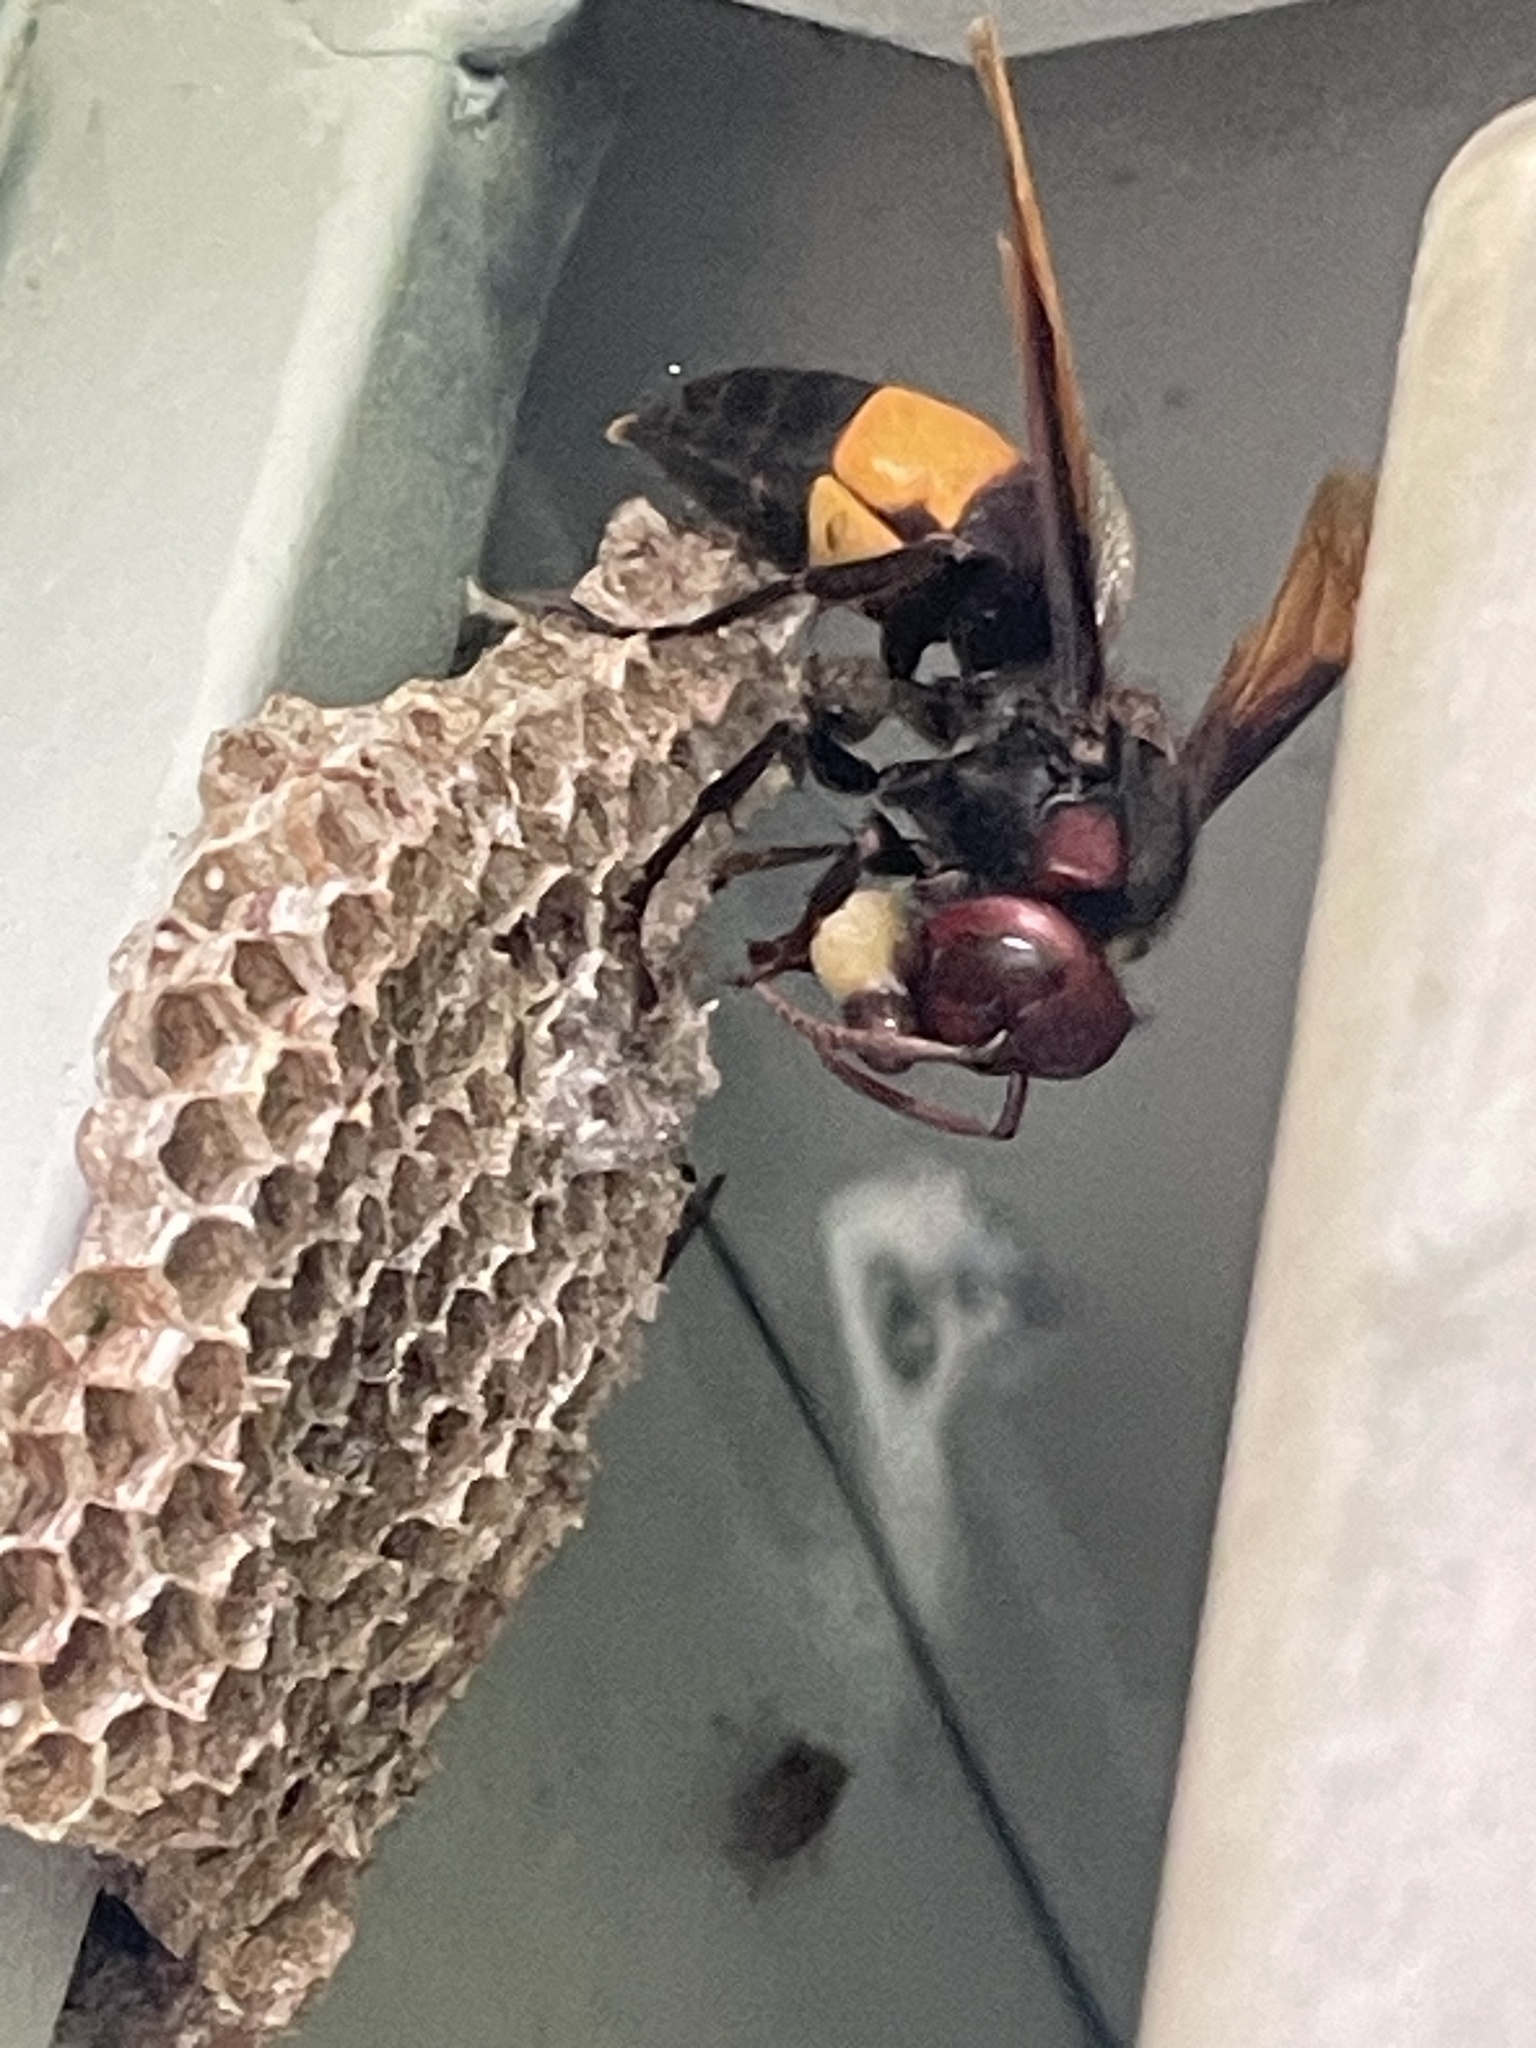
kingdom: Animalia
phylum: Arthropoda
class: Insecta
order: Hymenoptera
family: Vespidae
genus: Vespa
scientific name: Vespa tropica
